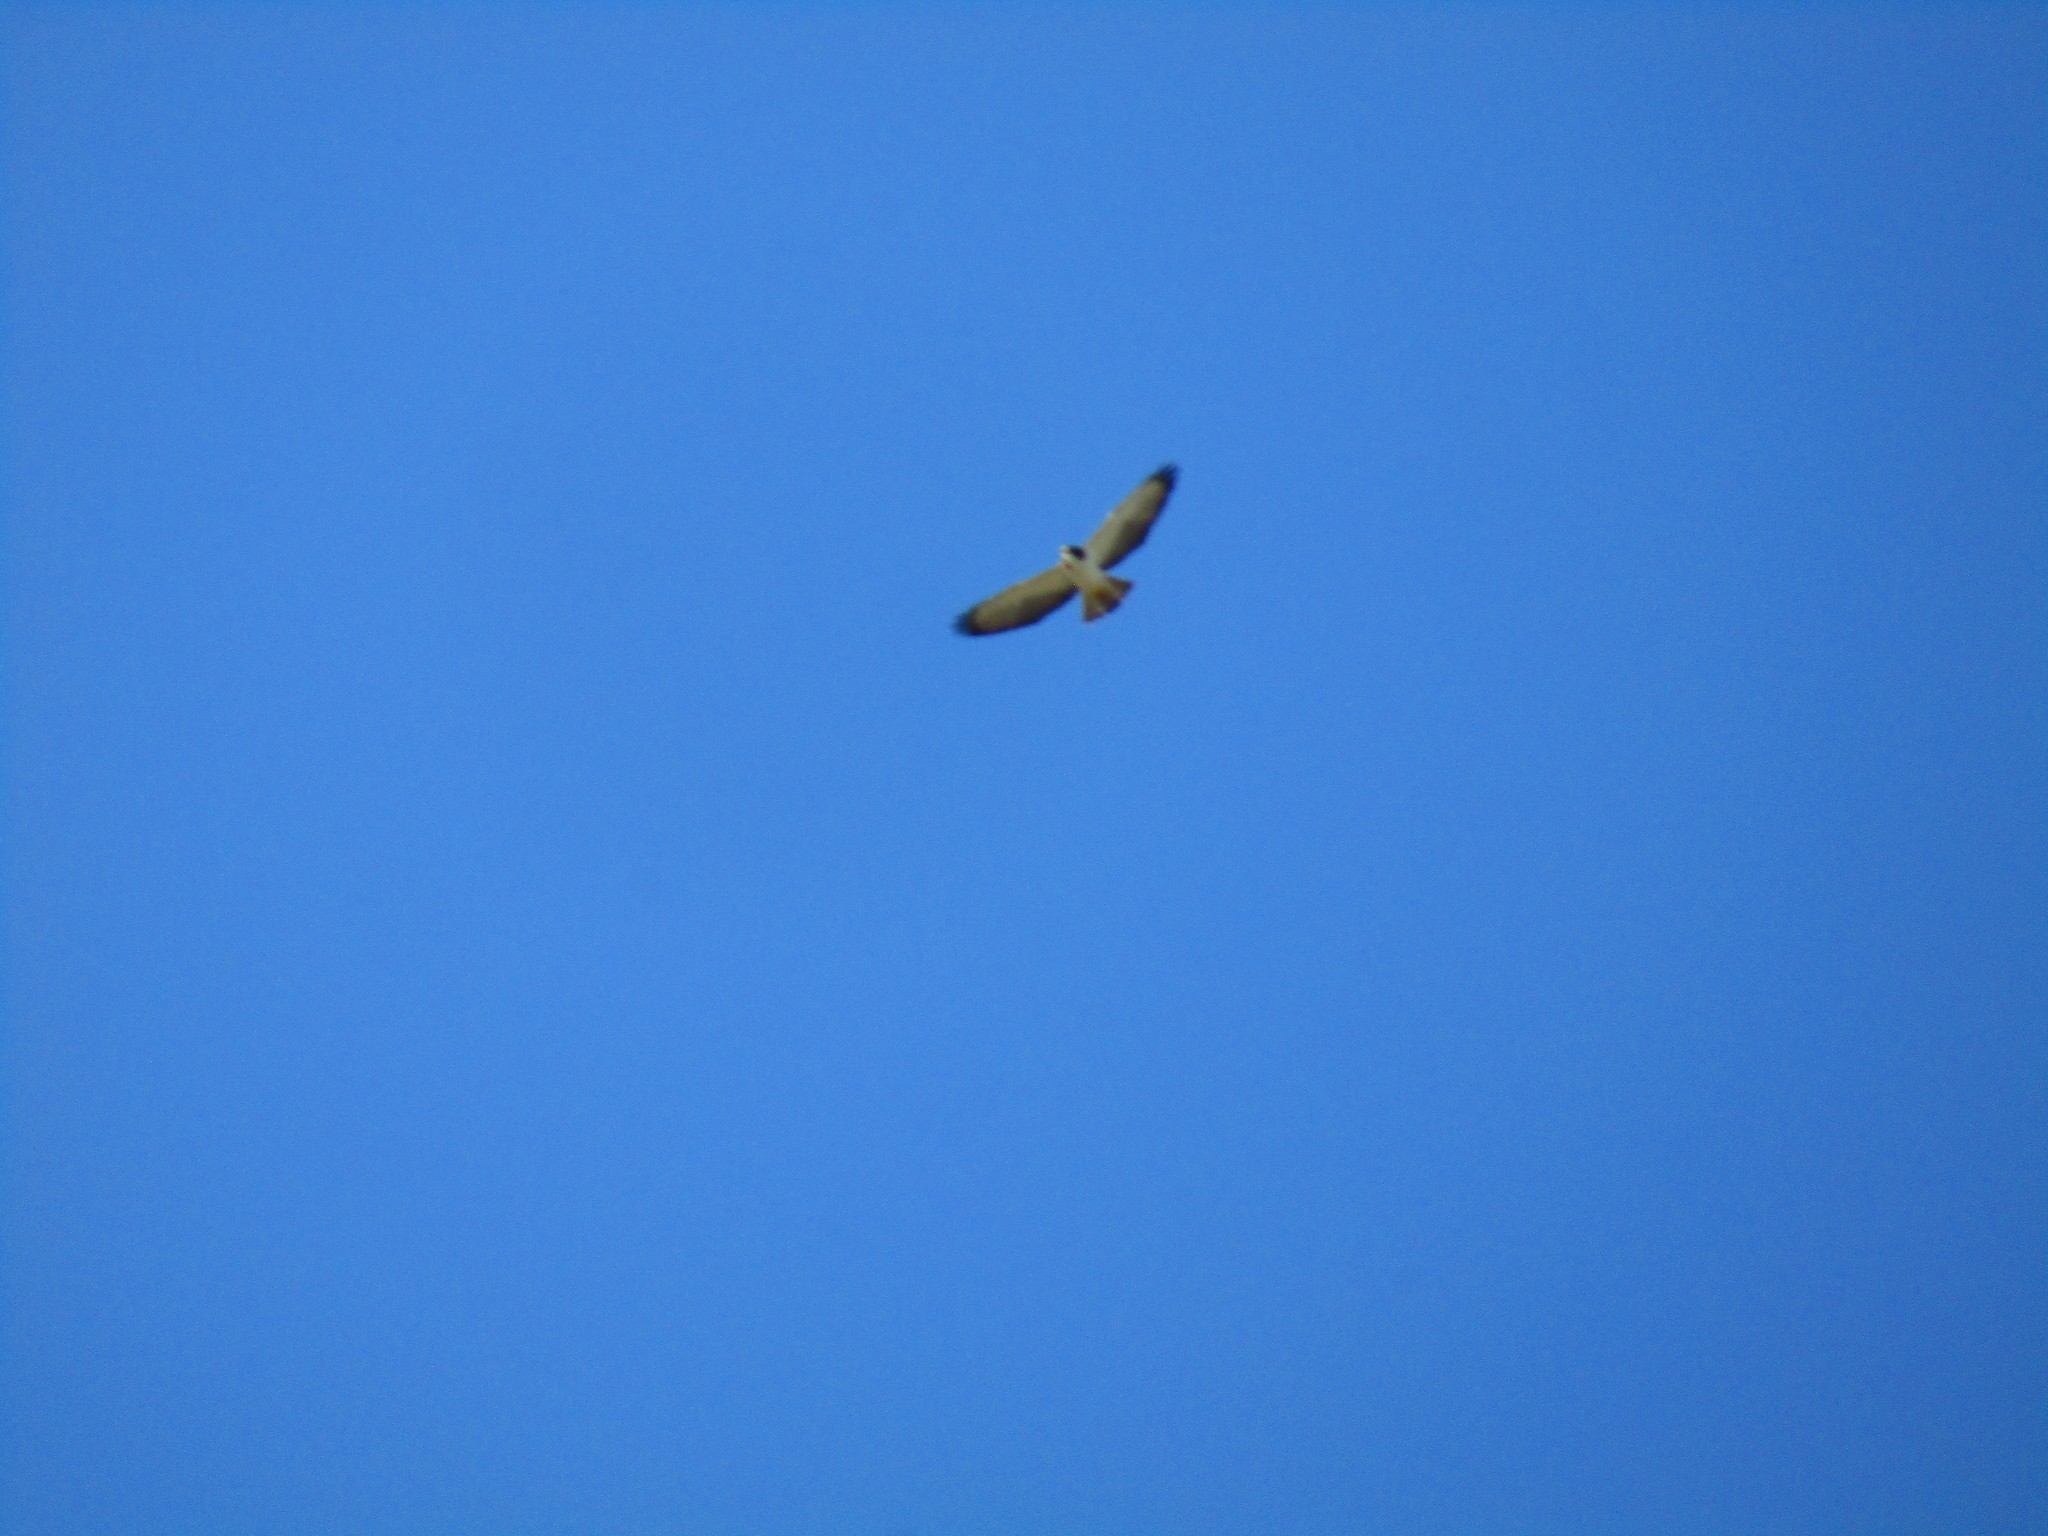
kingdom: Animalia
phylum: Chordata
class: Aves
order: Accipitriformes
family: Accipitridae
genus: Buteo
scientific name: Buteo brachyurus
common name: Short-tailed hawk
